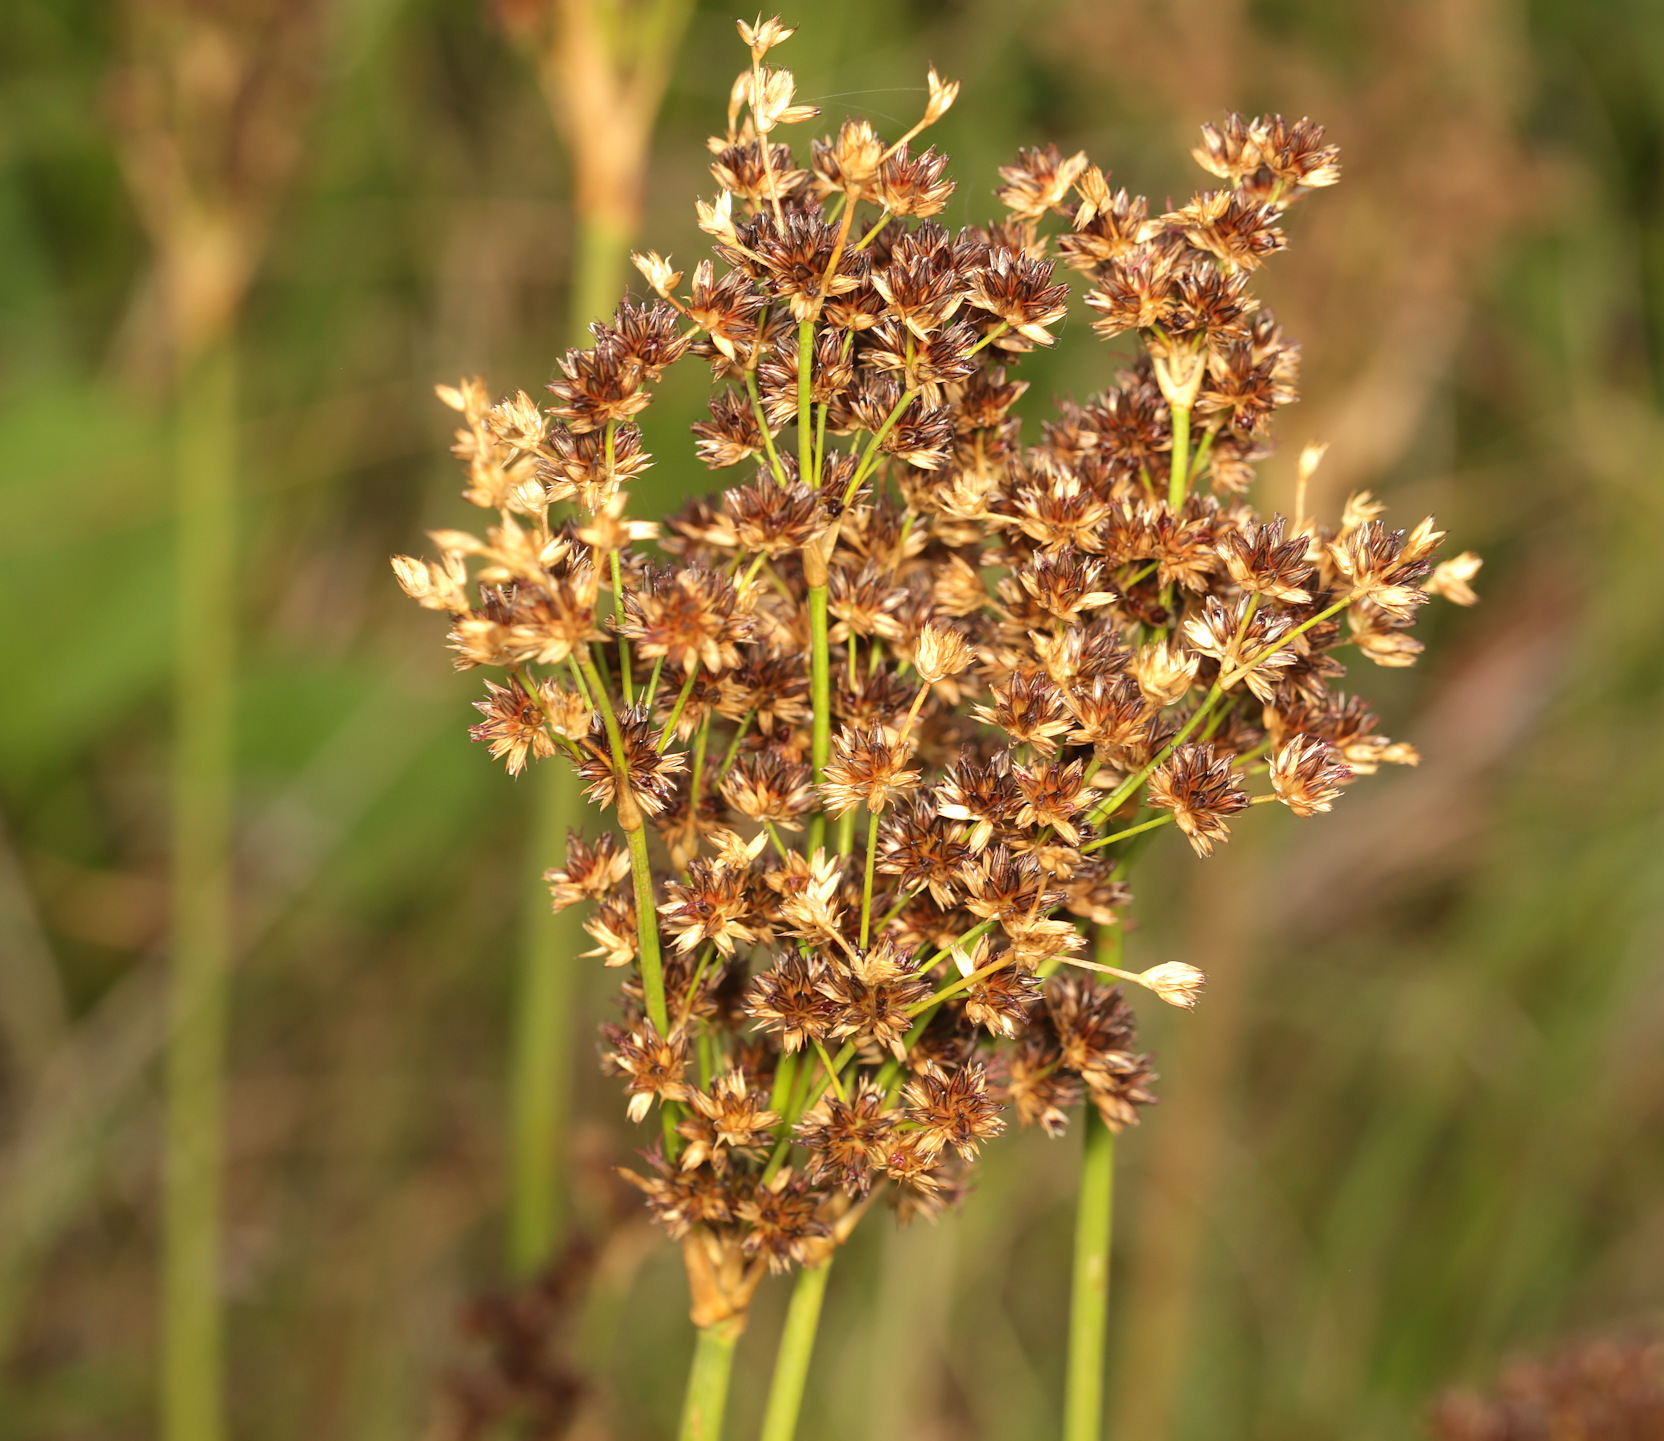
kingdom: Plantae
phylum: Tracheophyta
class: Liliopsida
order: Poales
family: Juncaceae
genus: Juncus
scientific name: Juncus lomatophyllus
